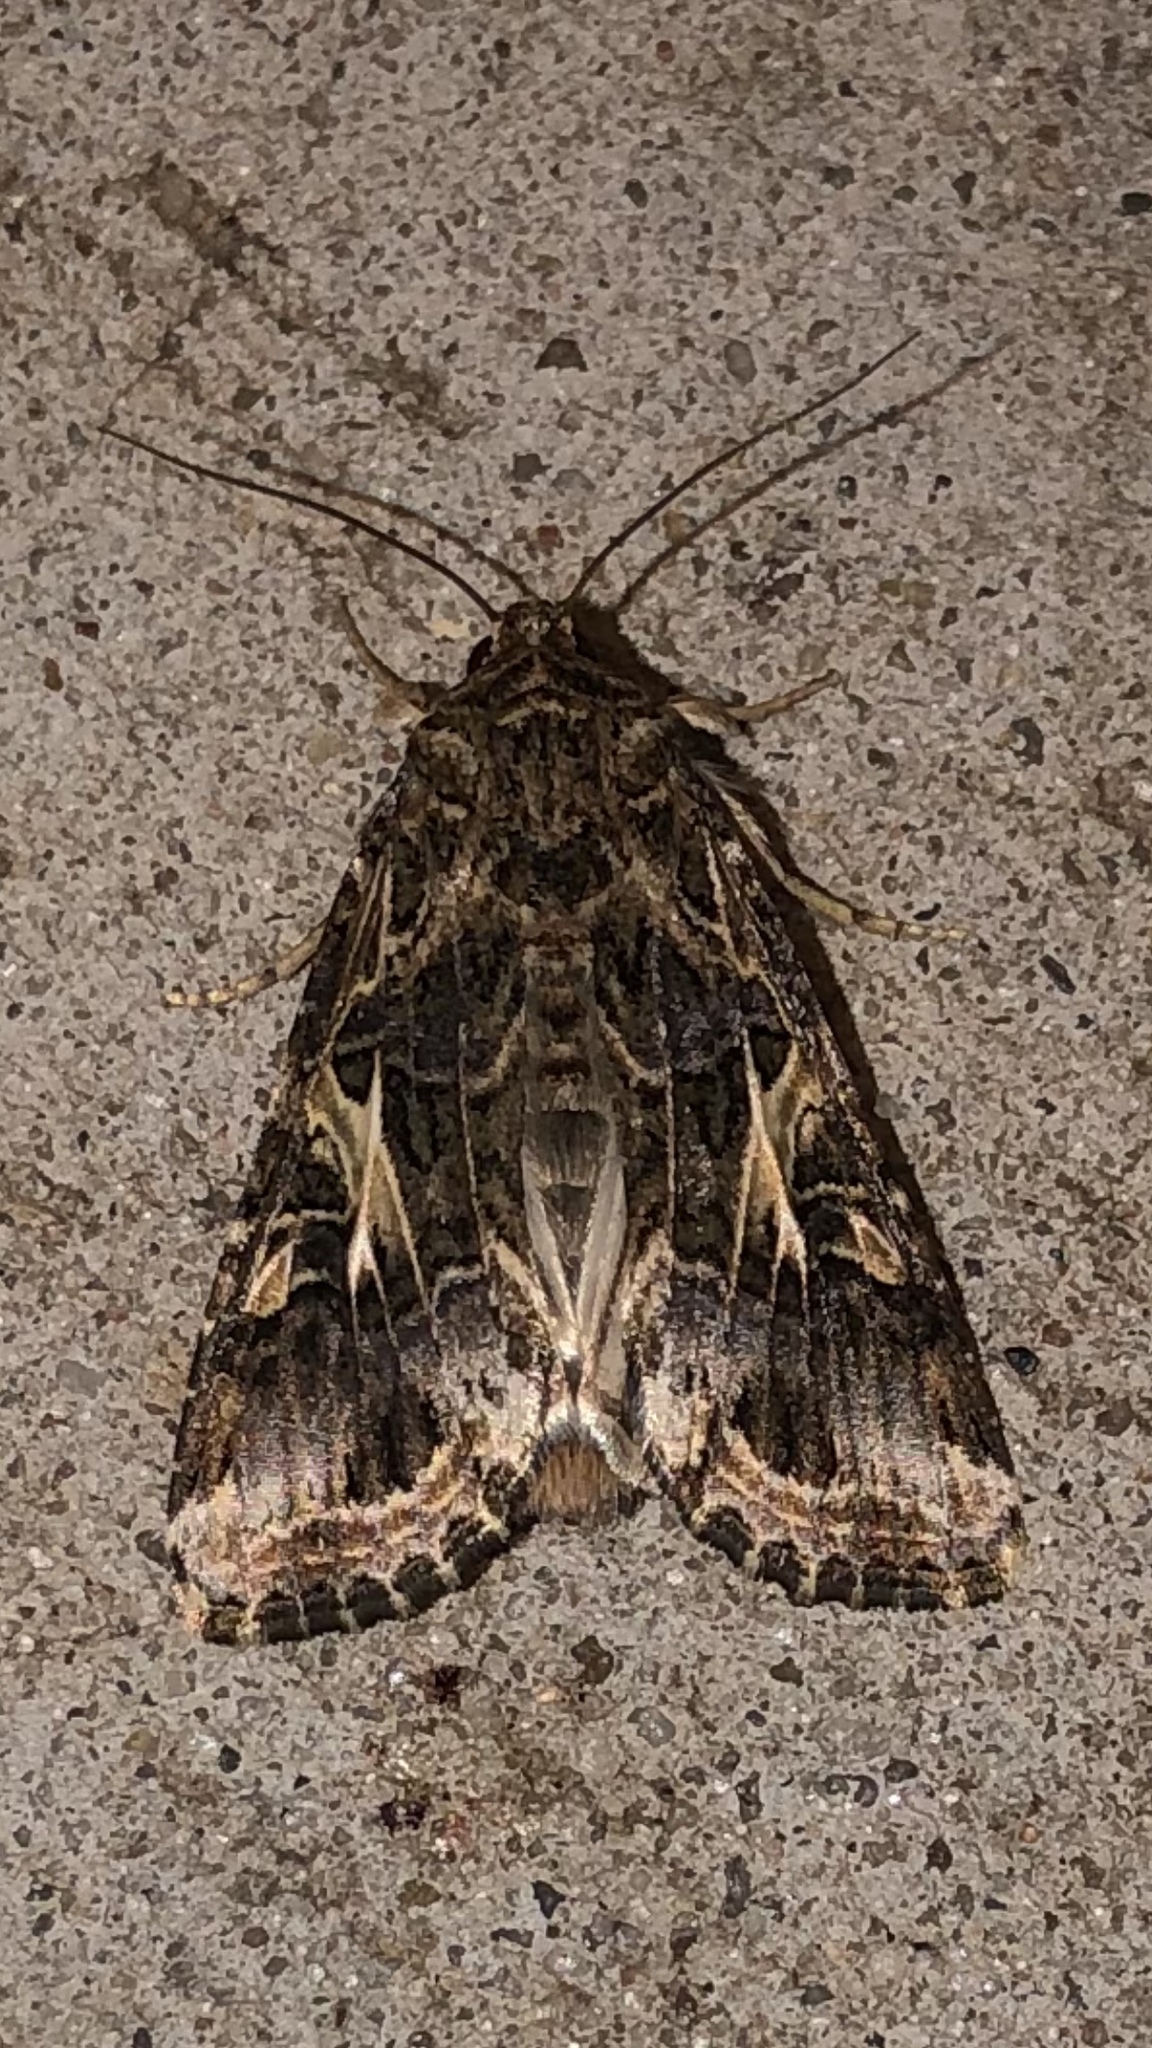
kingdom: Animalia
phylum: Arthropoda
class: Insecta
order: Lepidoptera
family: Noctuidae
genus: Spodoptera
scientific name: Spodoptera ornithogalli
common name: Yellow-striped armyworm
